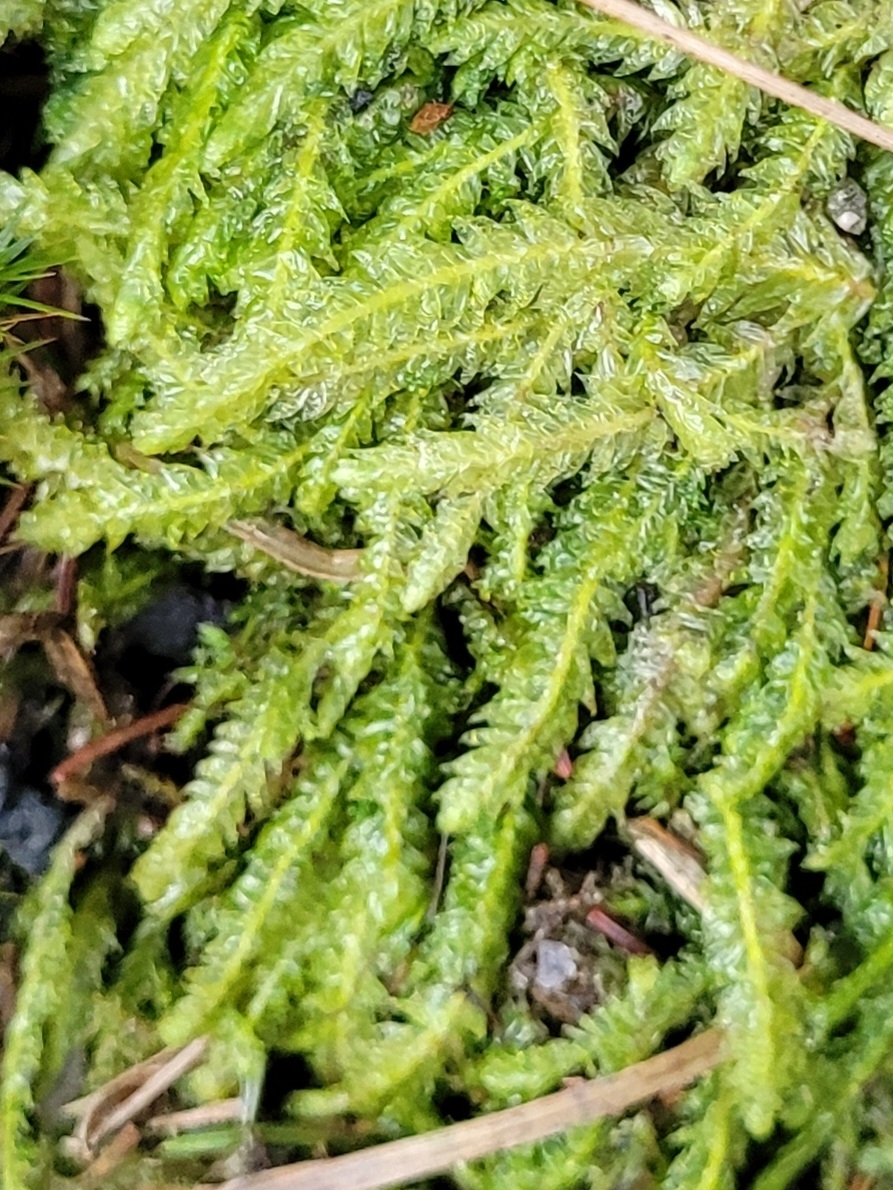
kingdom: Plantae
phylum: Bryophyta
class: Bryopsida
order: Hypnales
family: Plagiotheciaceae
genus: Plagiothecium
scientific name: Plagiothecium undulatum
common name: Waved silk-moss
